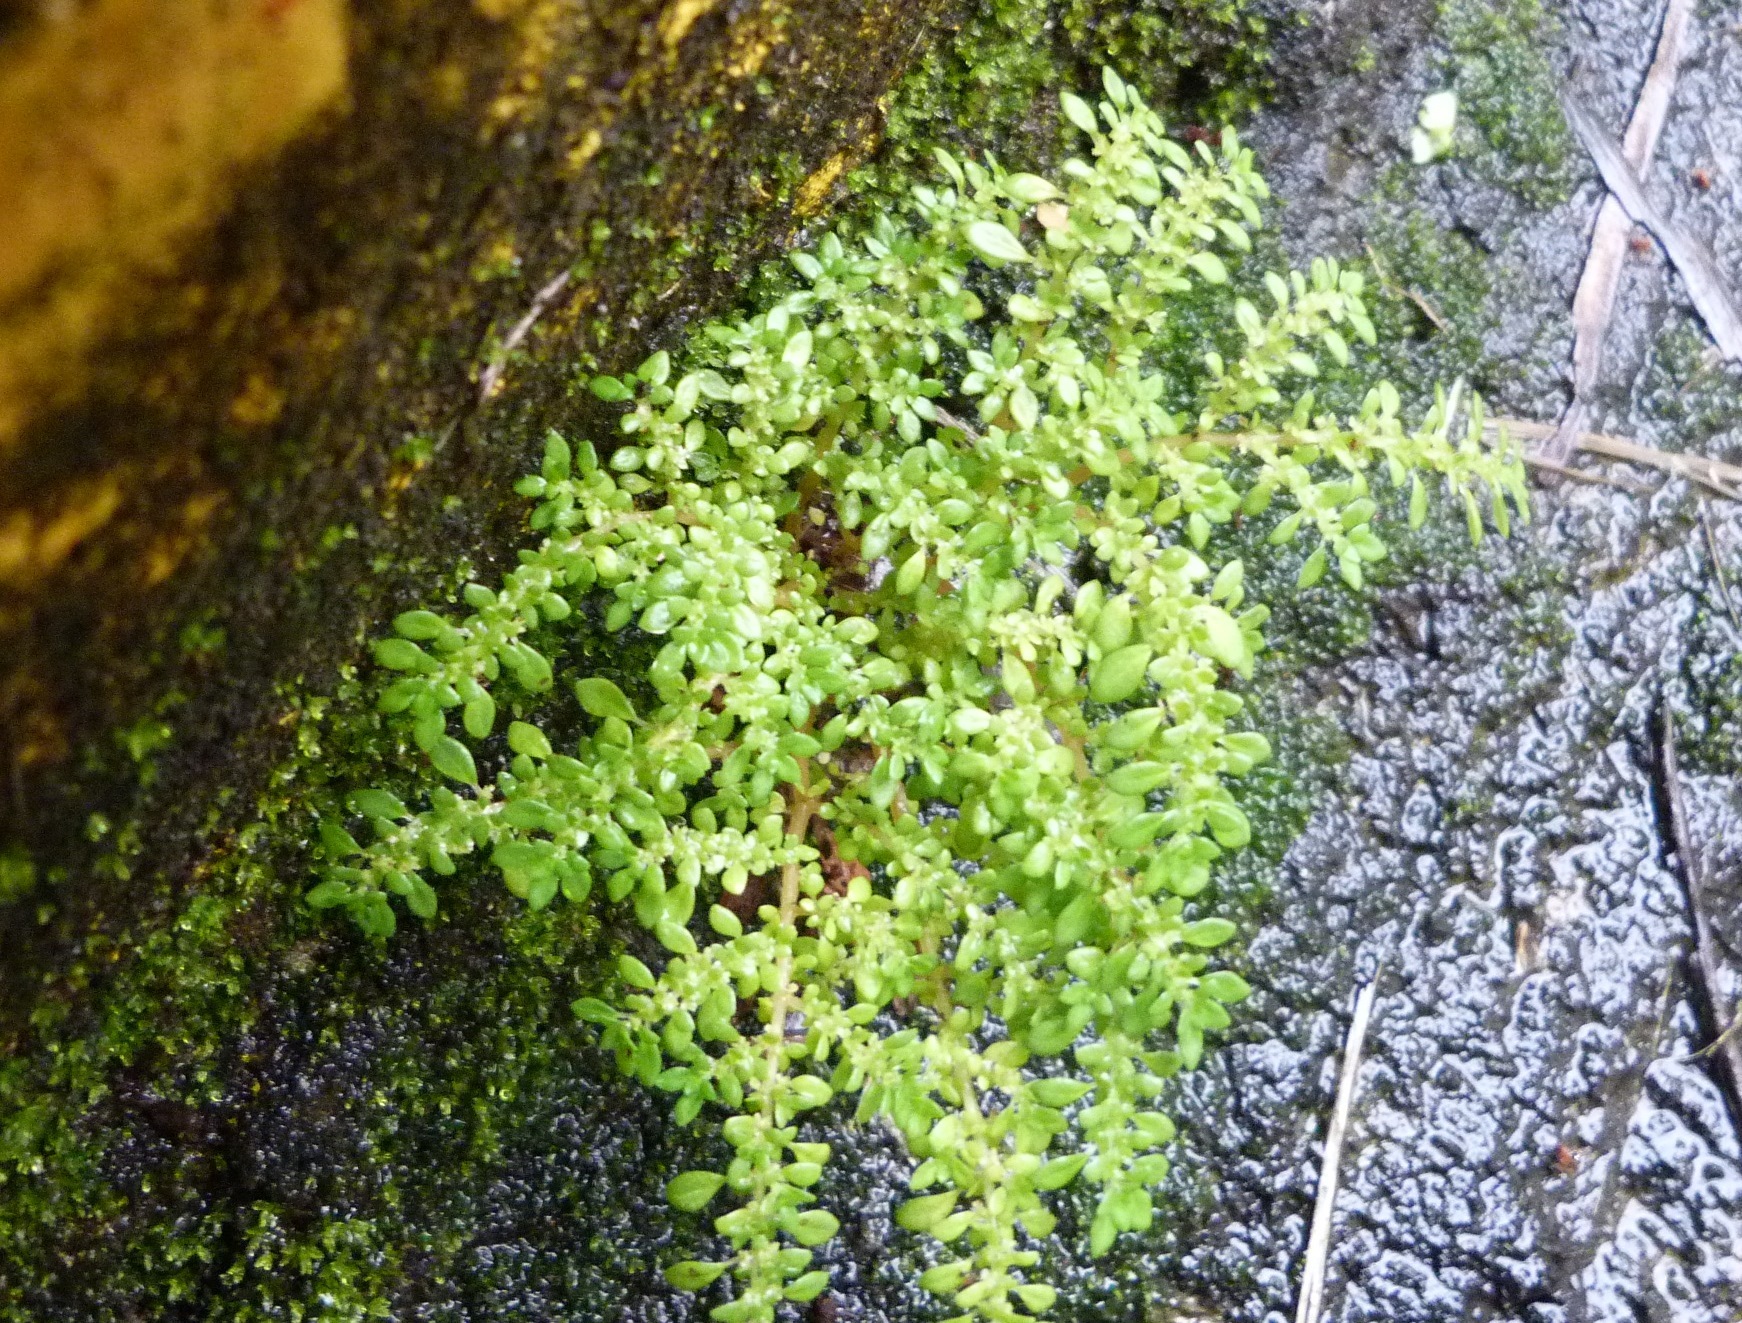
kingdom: Plantae
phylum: Tracheophyta
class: Magnoliopsida
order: Rosales
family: Urticaceae
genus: Pilea
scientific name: Pilea microphylla
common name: Artillery-plant
